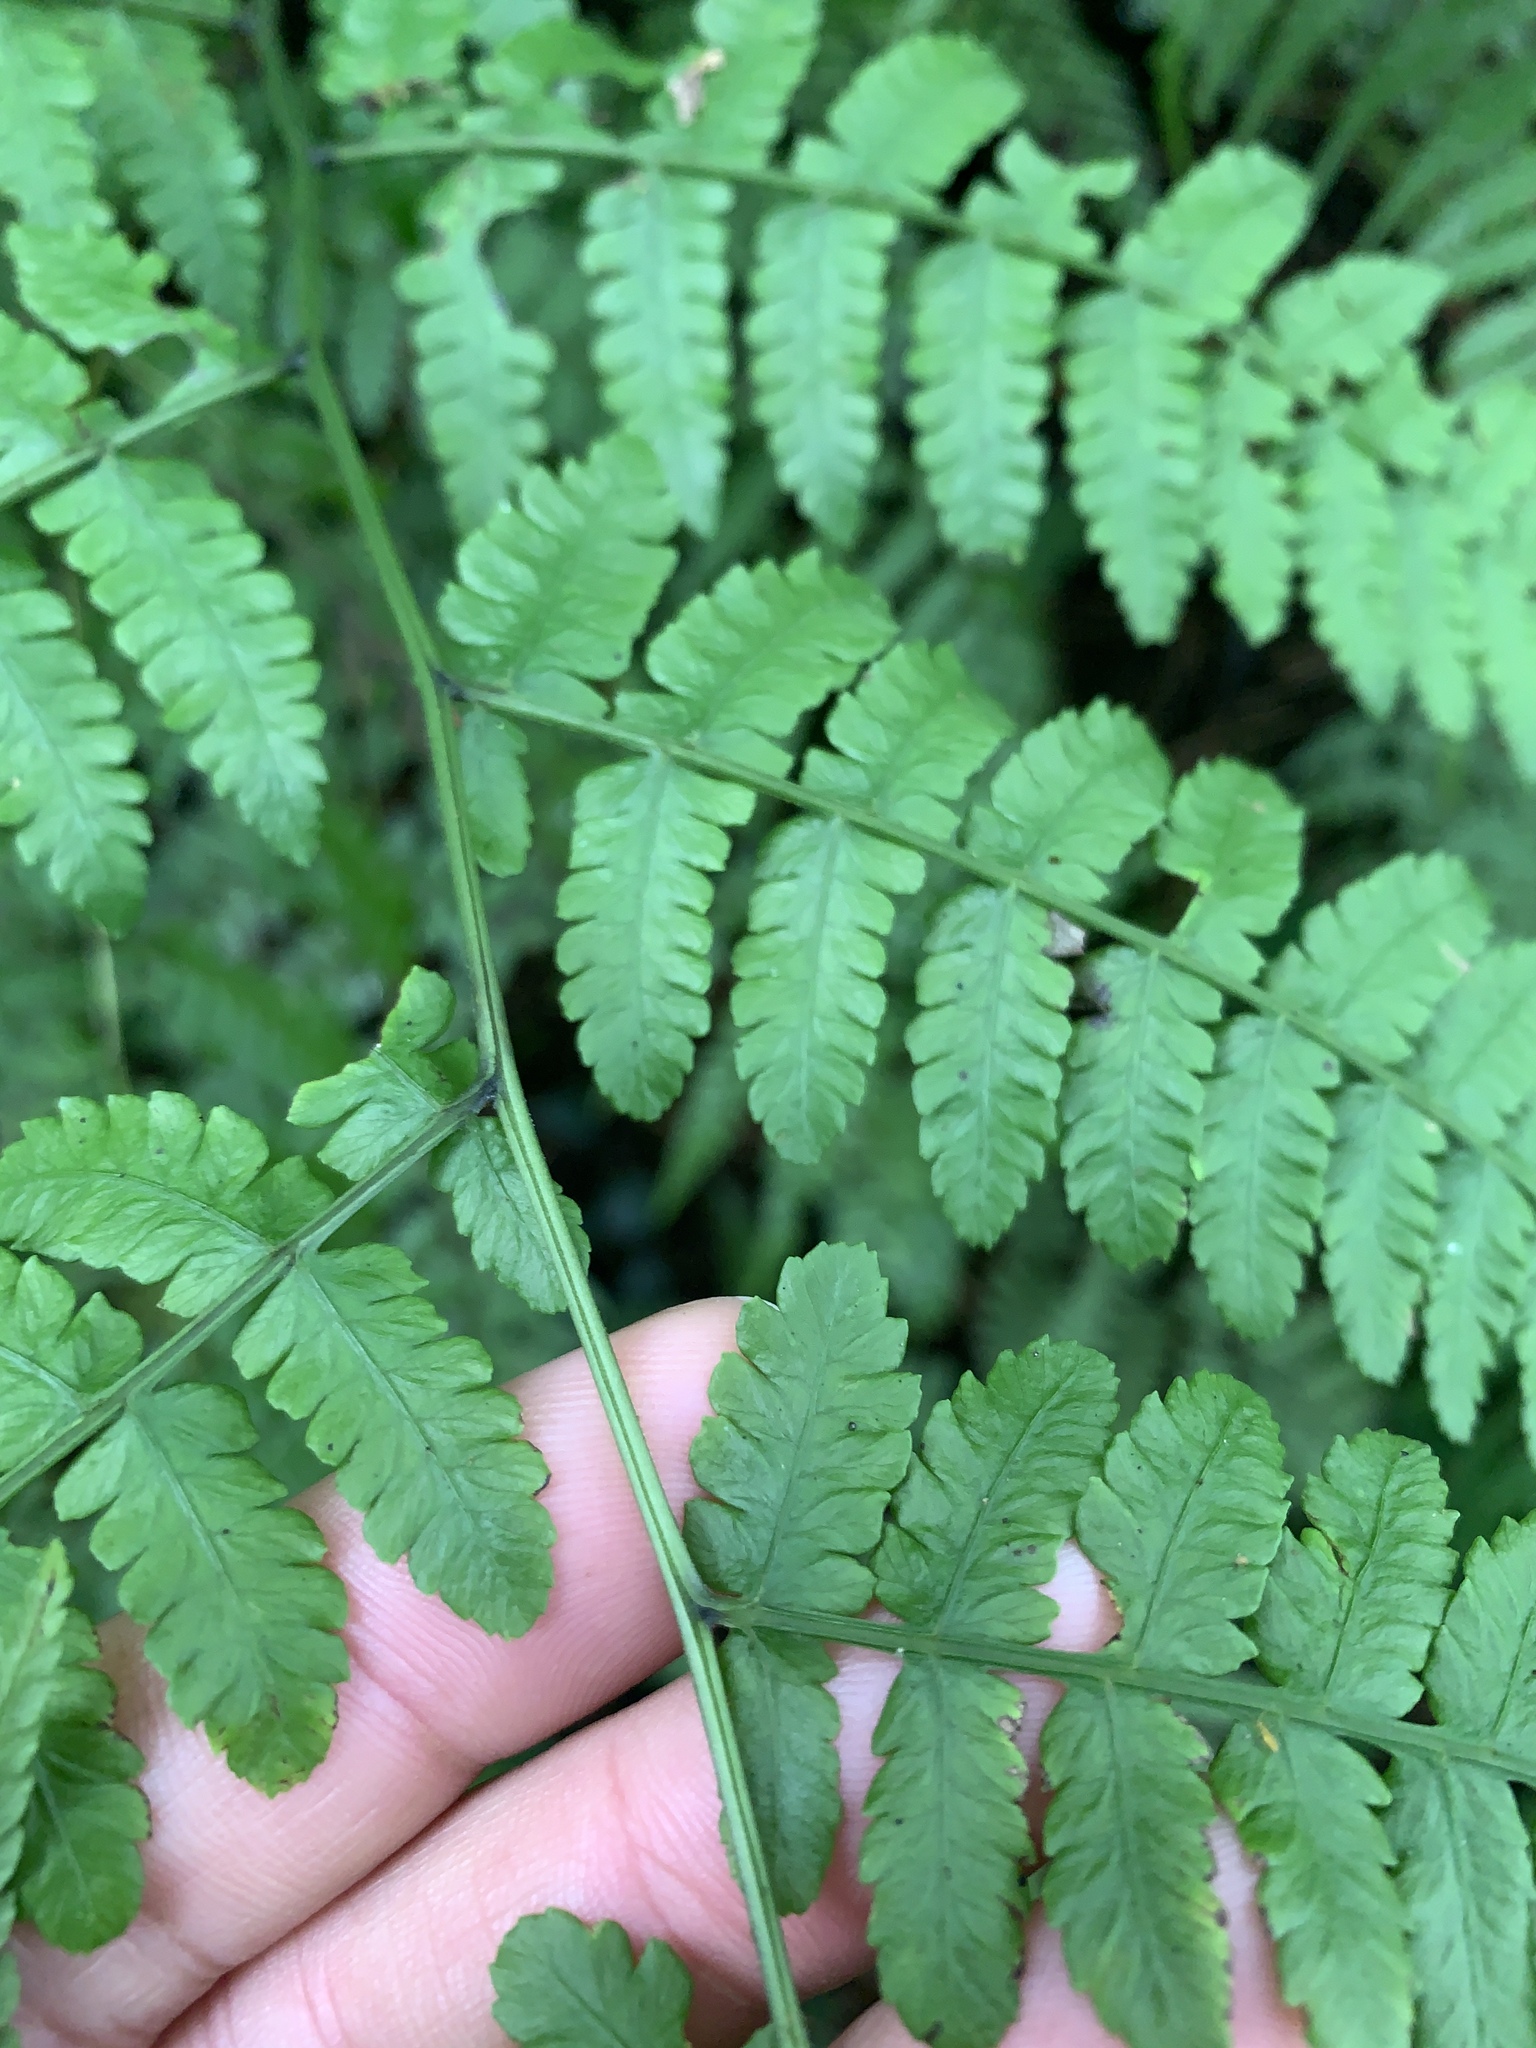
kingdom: Plantae
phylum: Tracheophyta
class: Polypodiopsida
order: Polypodiales
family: Athyriaceae
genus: Diplazium
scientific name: Diplazium laxifrons
